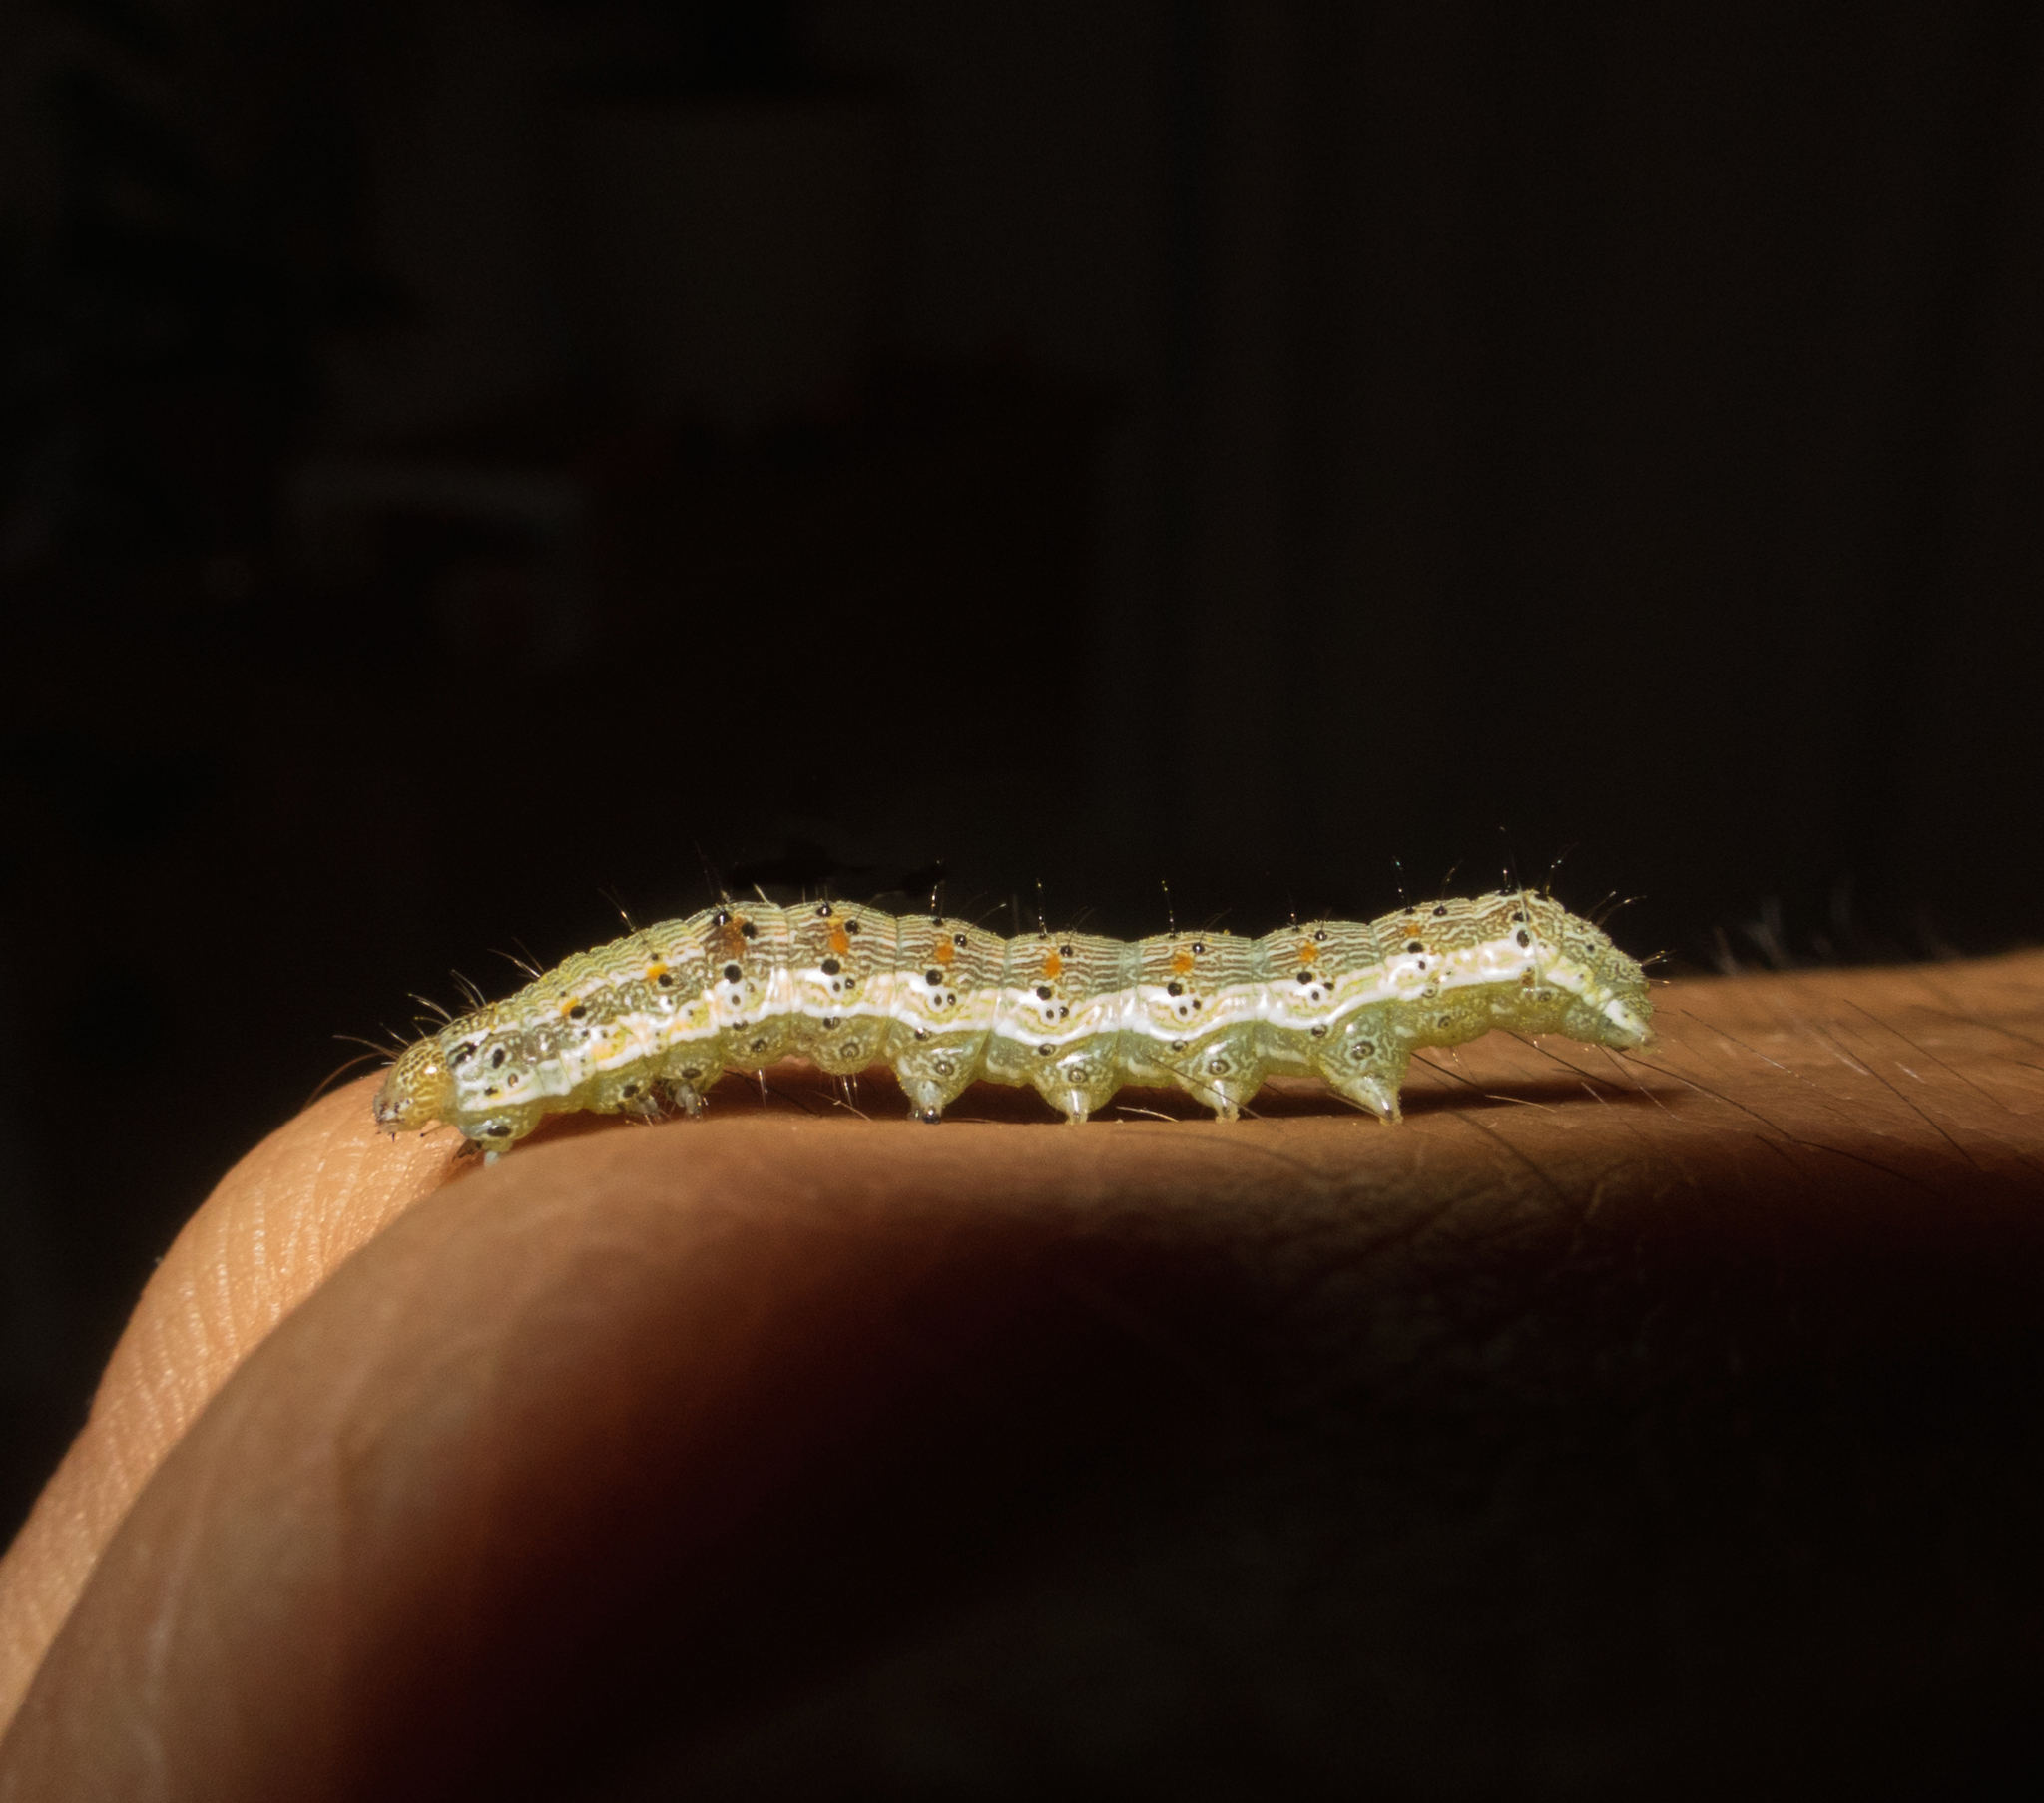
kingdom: Animalia
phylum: Arthropoda
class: Insecta
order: Lepidoptera
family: Noctuidae
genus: Helicoverpa
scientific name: Helicoverpa armigera
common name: Cotton bollworm
